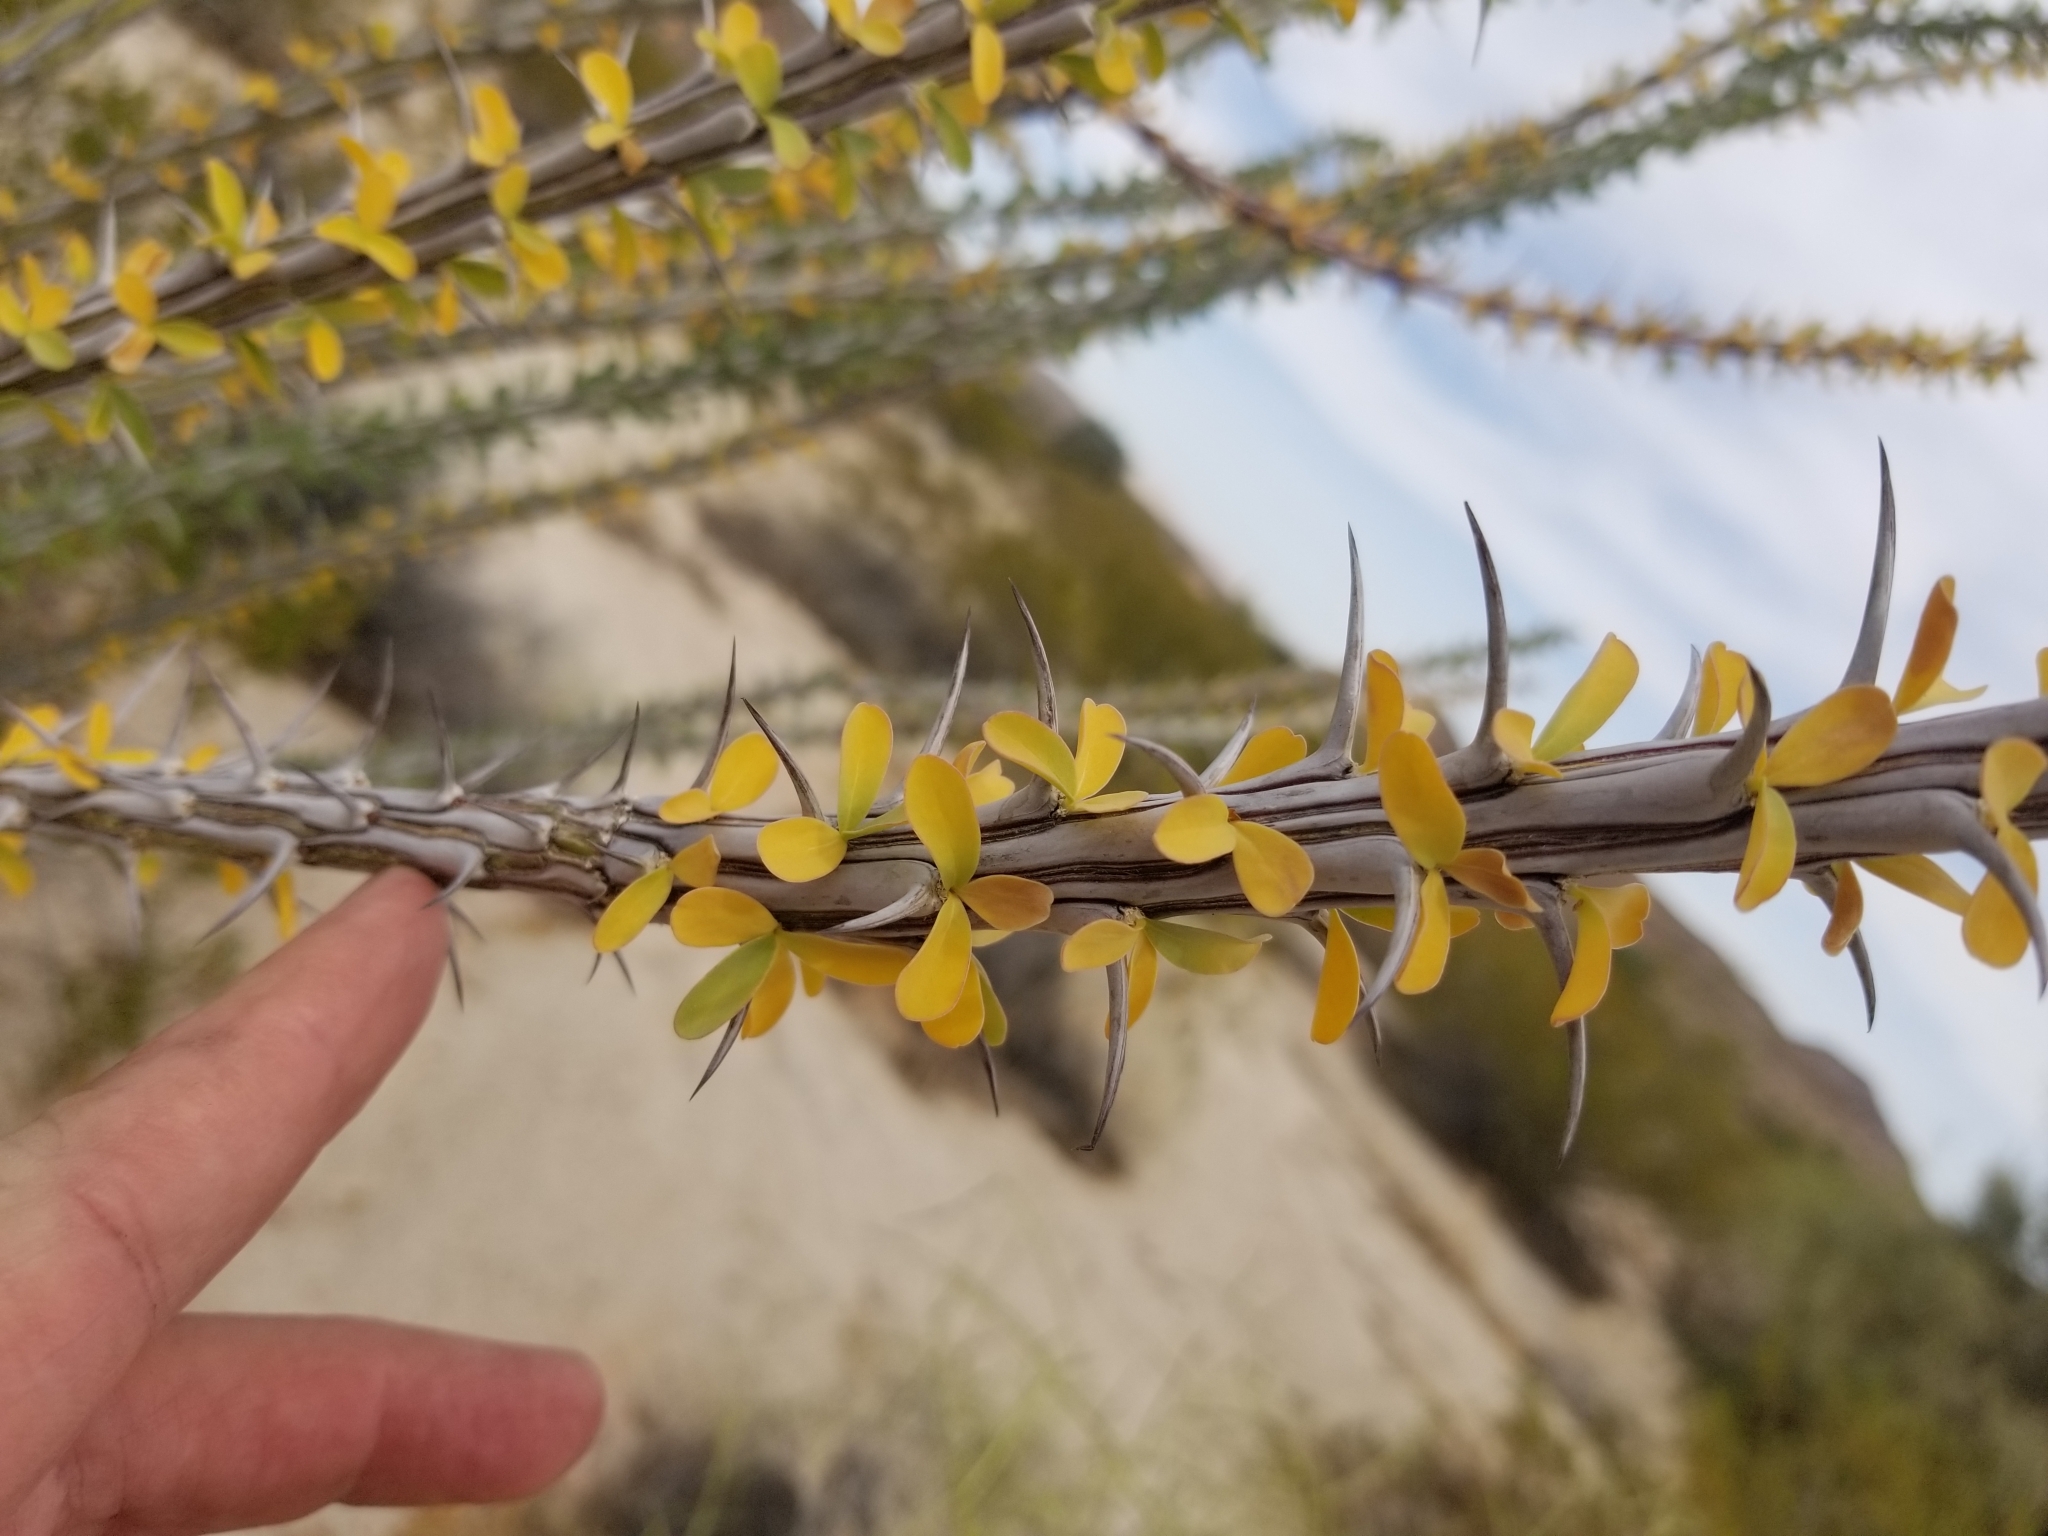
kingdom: Plantae
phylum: Tracheophyta
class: Magnoliopsida
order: Ericales
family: Fouquieriaceae
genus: Fouquieria
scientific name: Fouquieria splendens
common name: Vine-cactus
